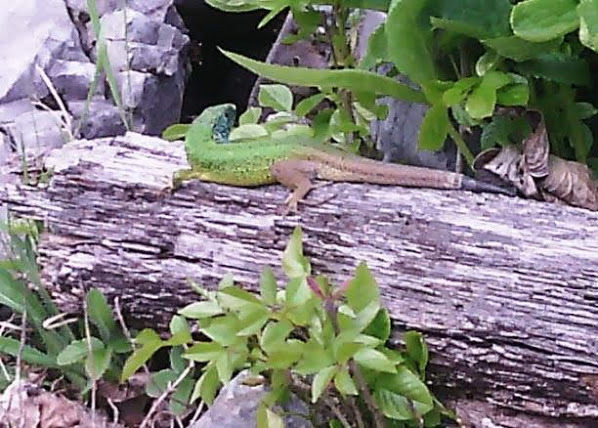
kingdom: Animalia
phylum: Chordata
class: Squamata
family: Lacertidae
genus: Lacerta
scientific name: Lacerta viridis
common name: European green lizard
